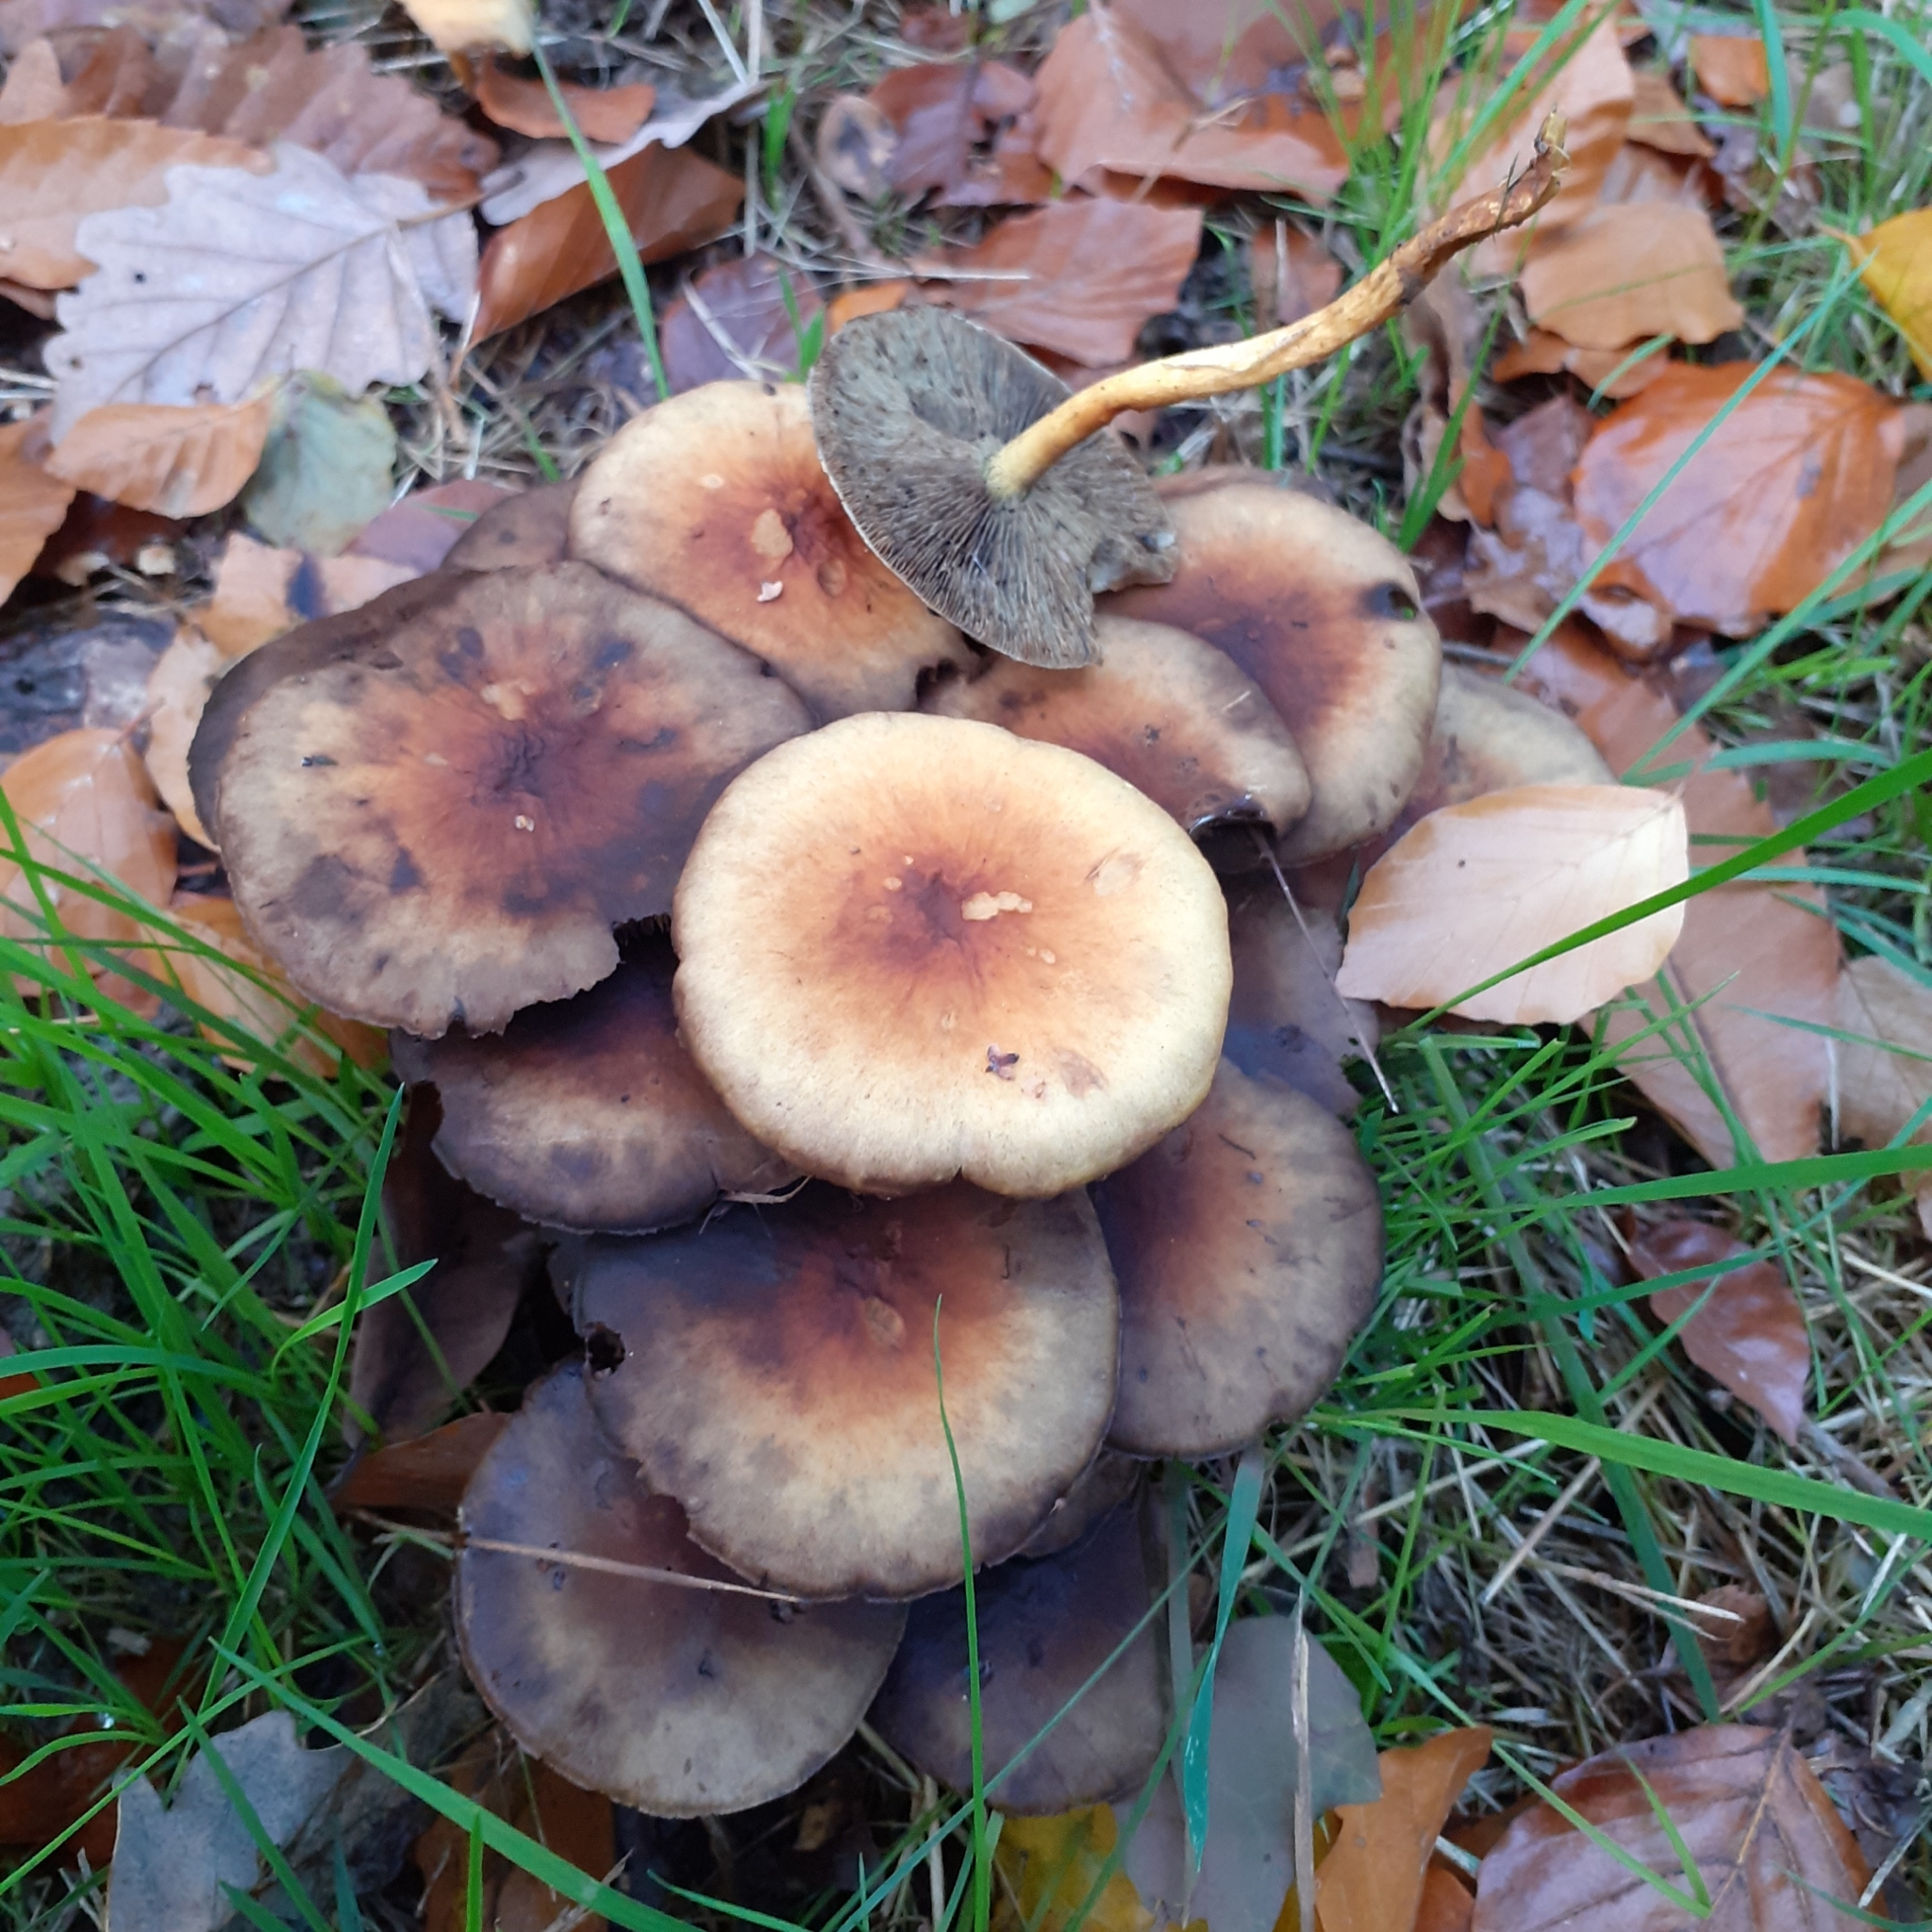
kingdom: Fungi
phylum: Basidiomycota
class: Agaricomycetes
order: Agaricales
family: Strophariaceae
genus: Hypholoma
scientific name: Hypholoma fasciculare
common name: Sulphur tuft
